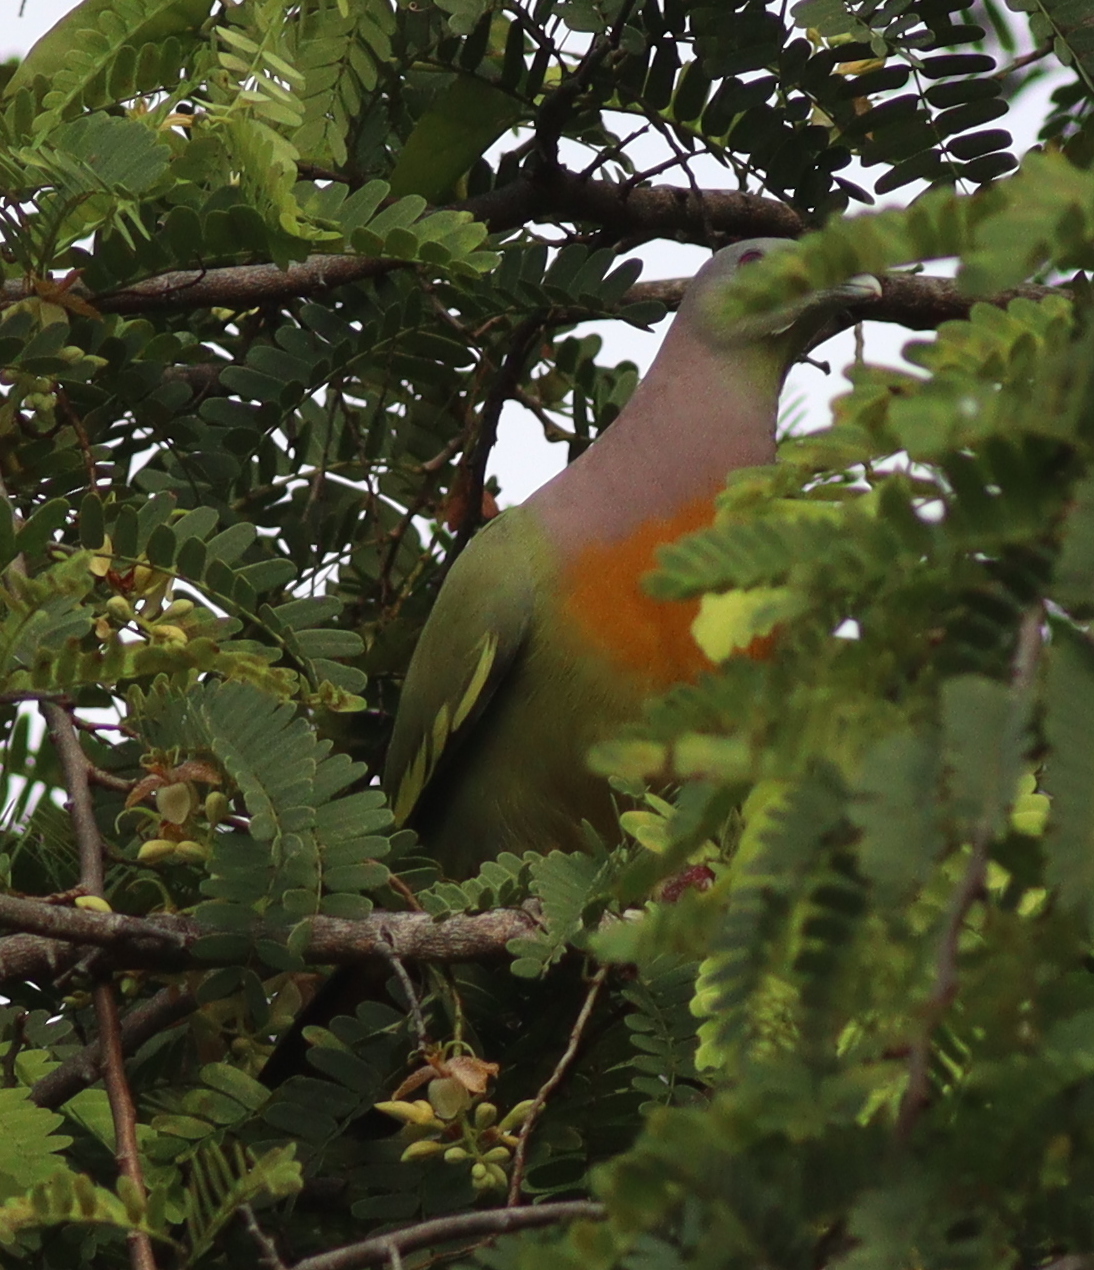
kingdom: Animalia
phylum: Chordata
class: Aves
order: Columbiformes
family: Columbidae
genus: Treron
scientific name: Treron vernans
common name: Pink-necked green pigeon
